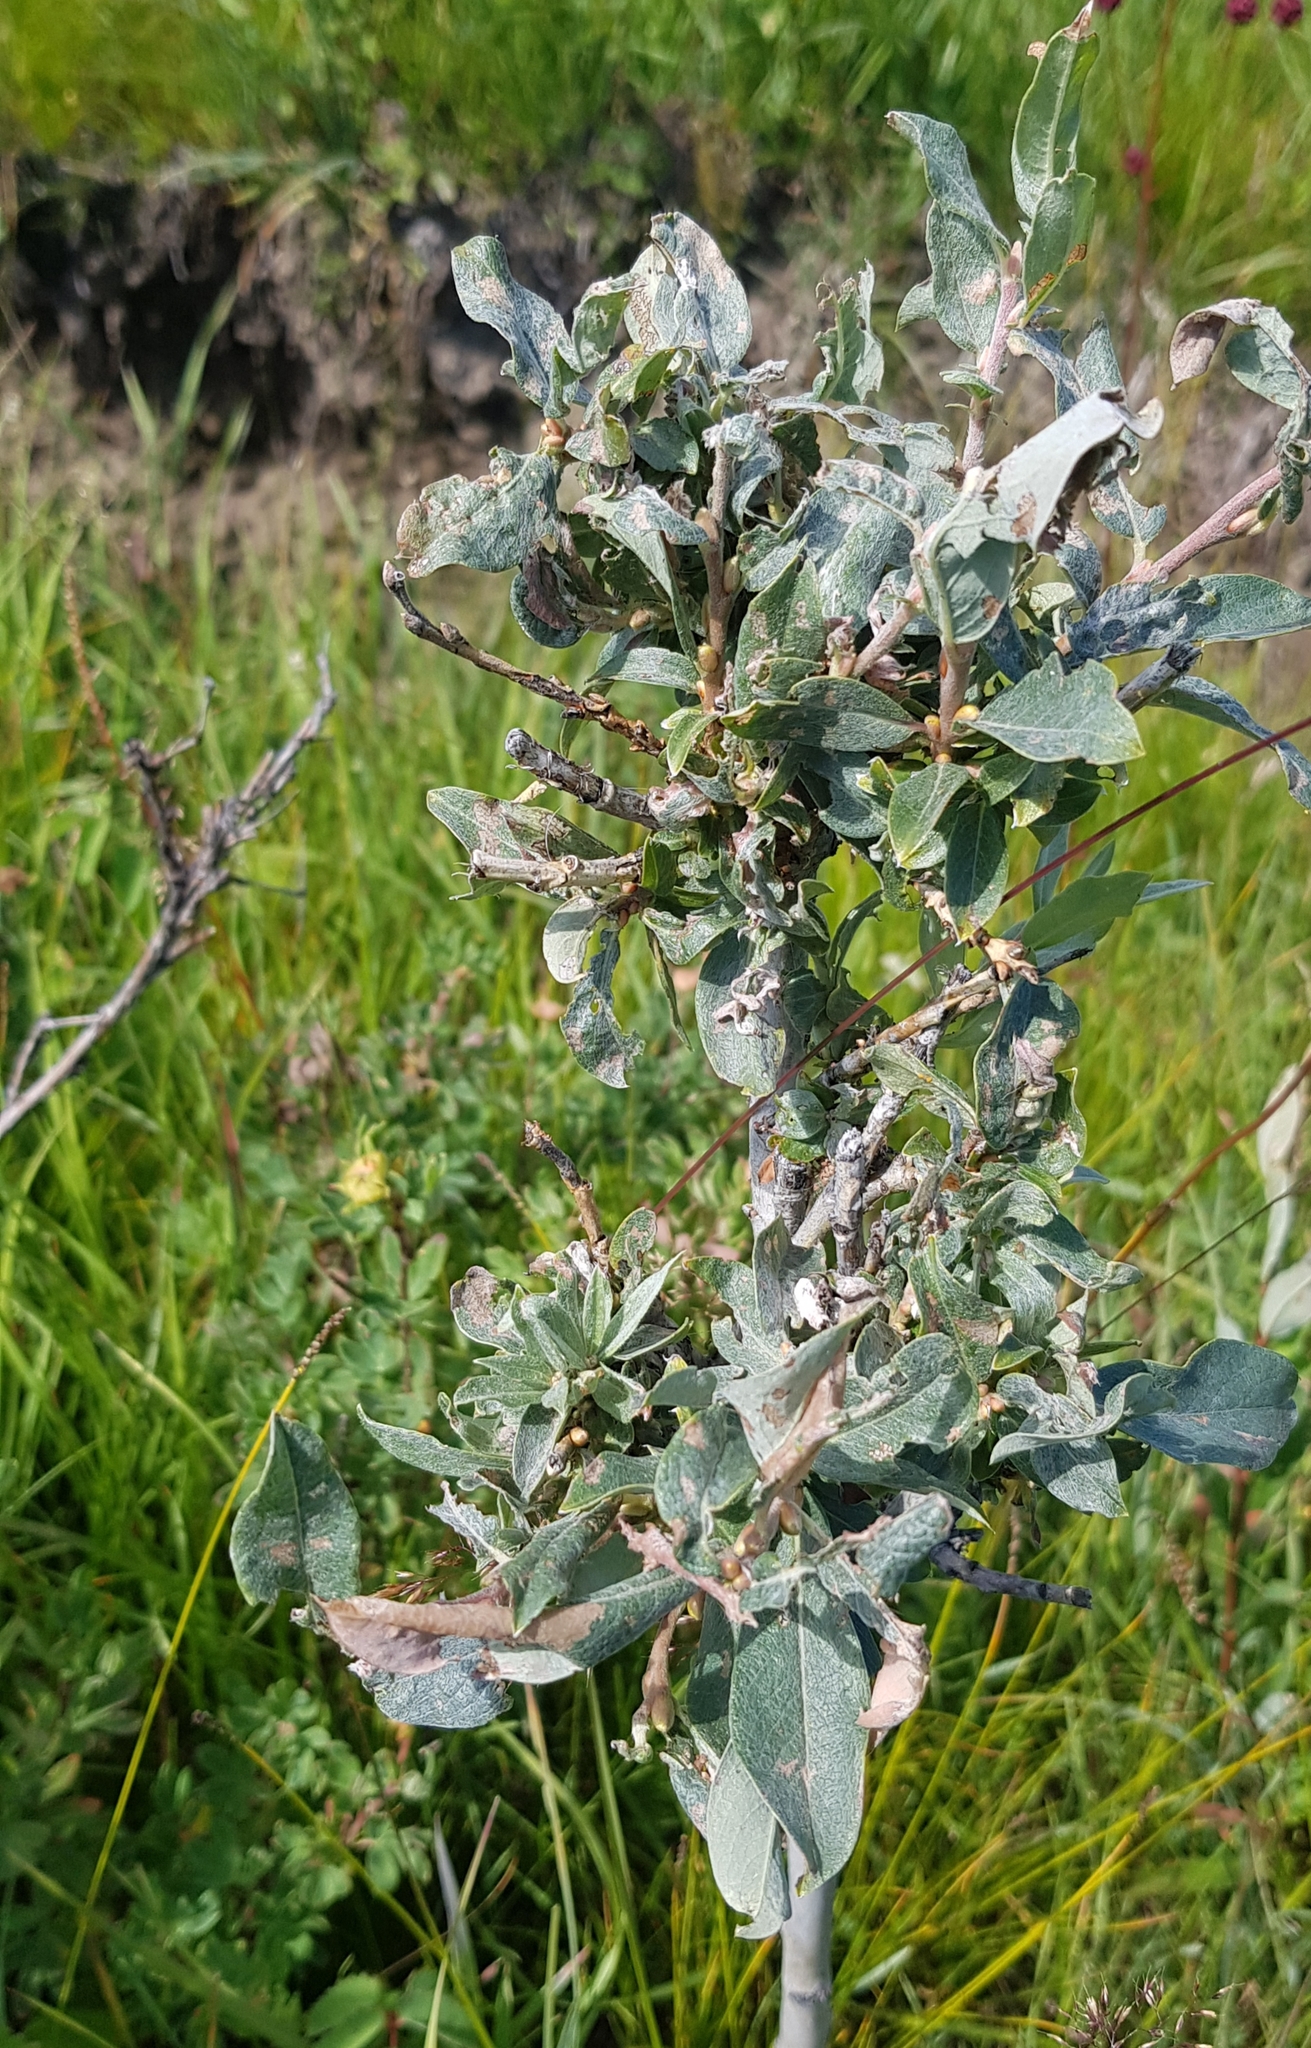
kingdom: Plantae
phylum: Tracheophyta
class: Magnoliopsida
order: Malpighiales
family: Salicaceae
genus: Salix
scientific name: Salix glauca
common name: Glaucous willow
